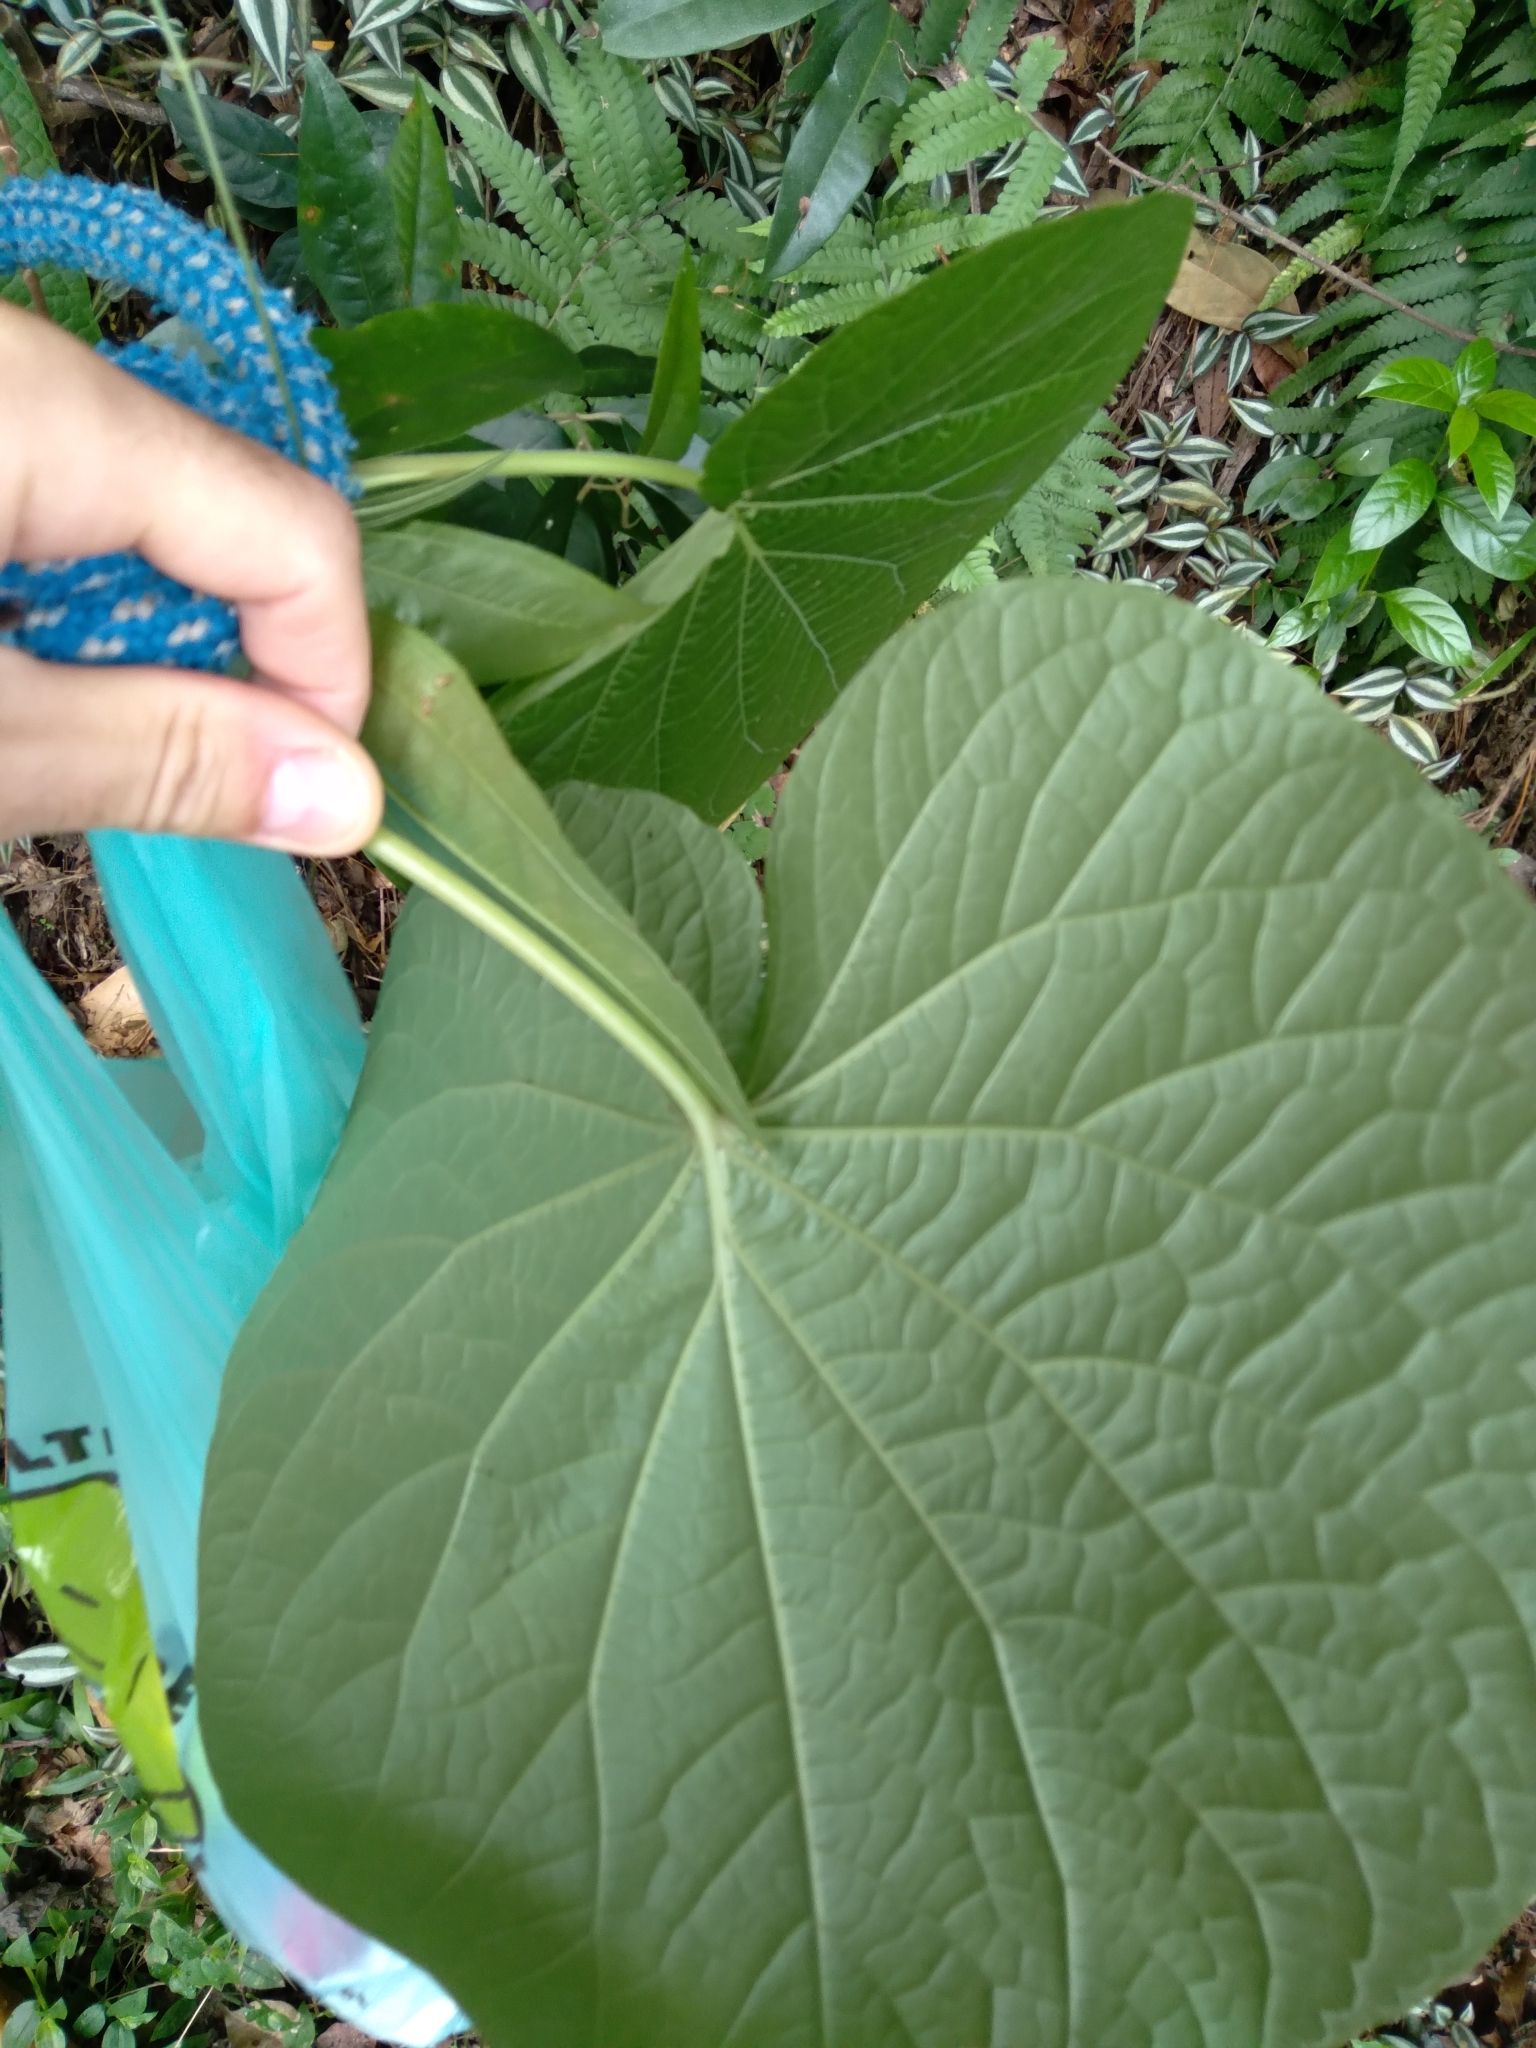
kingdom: Plantae
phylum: Tracheophyta
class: Magnoliopsida
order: Piperales
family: Piperaceae
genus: Piper
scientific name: Piper umbellatum
